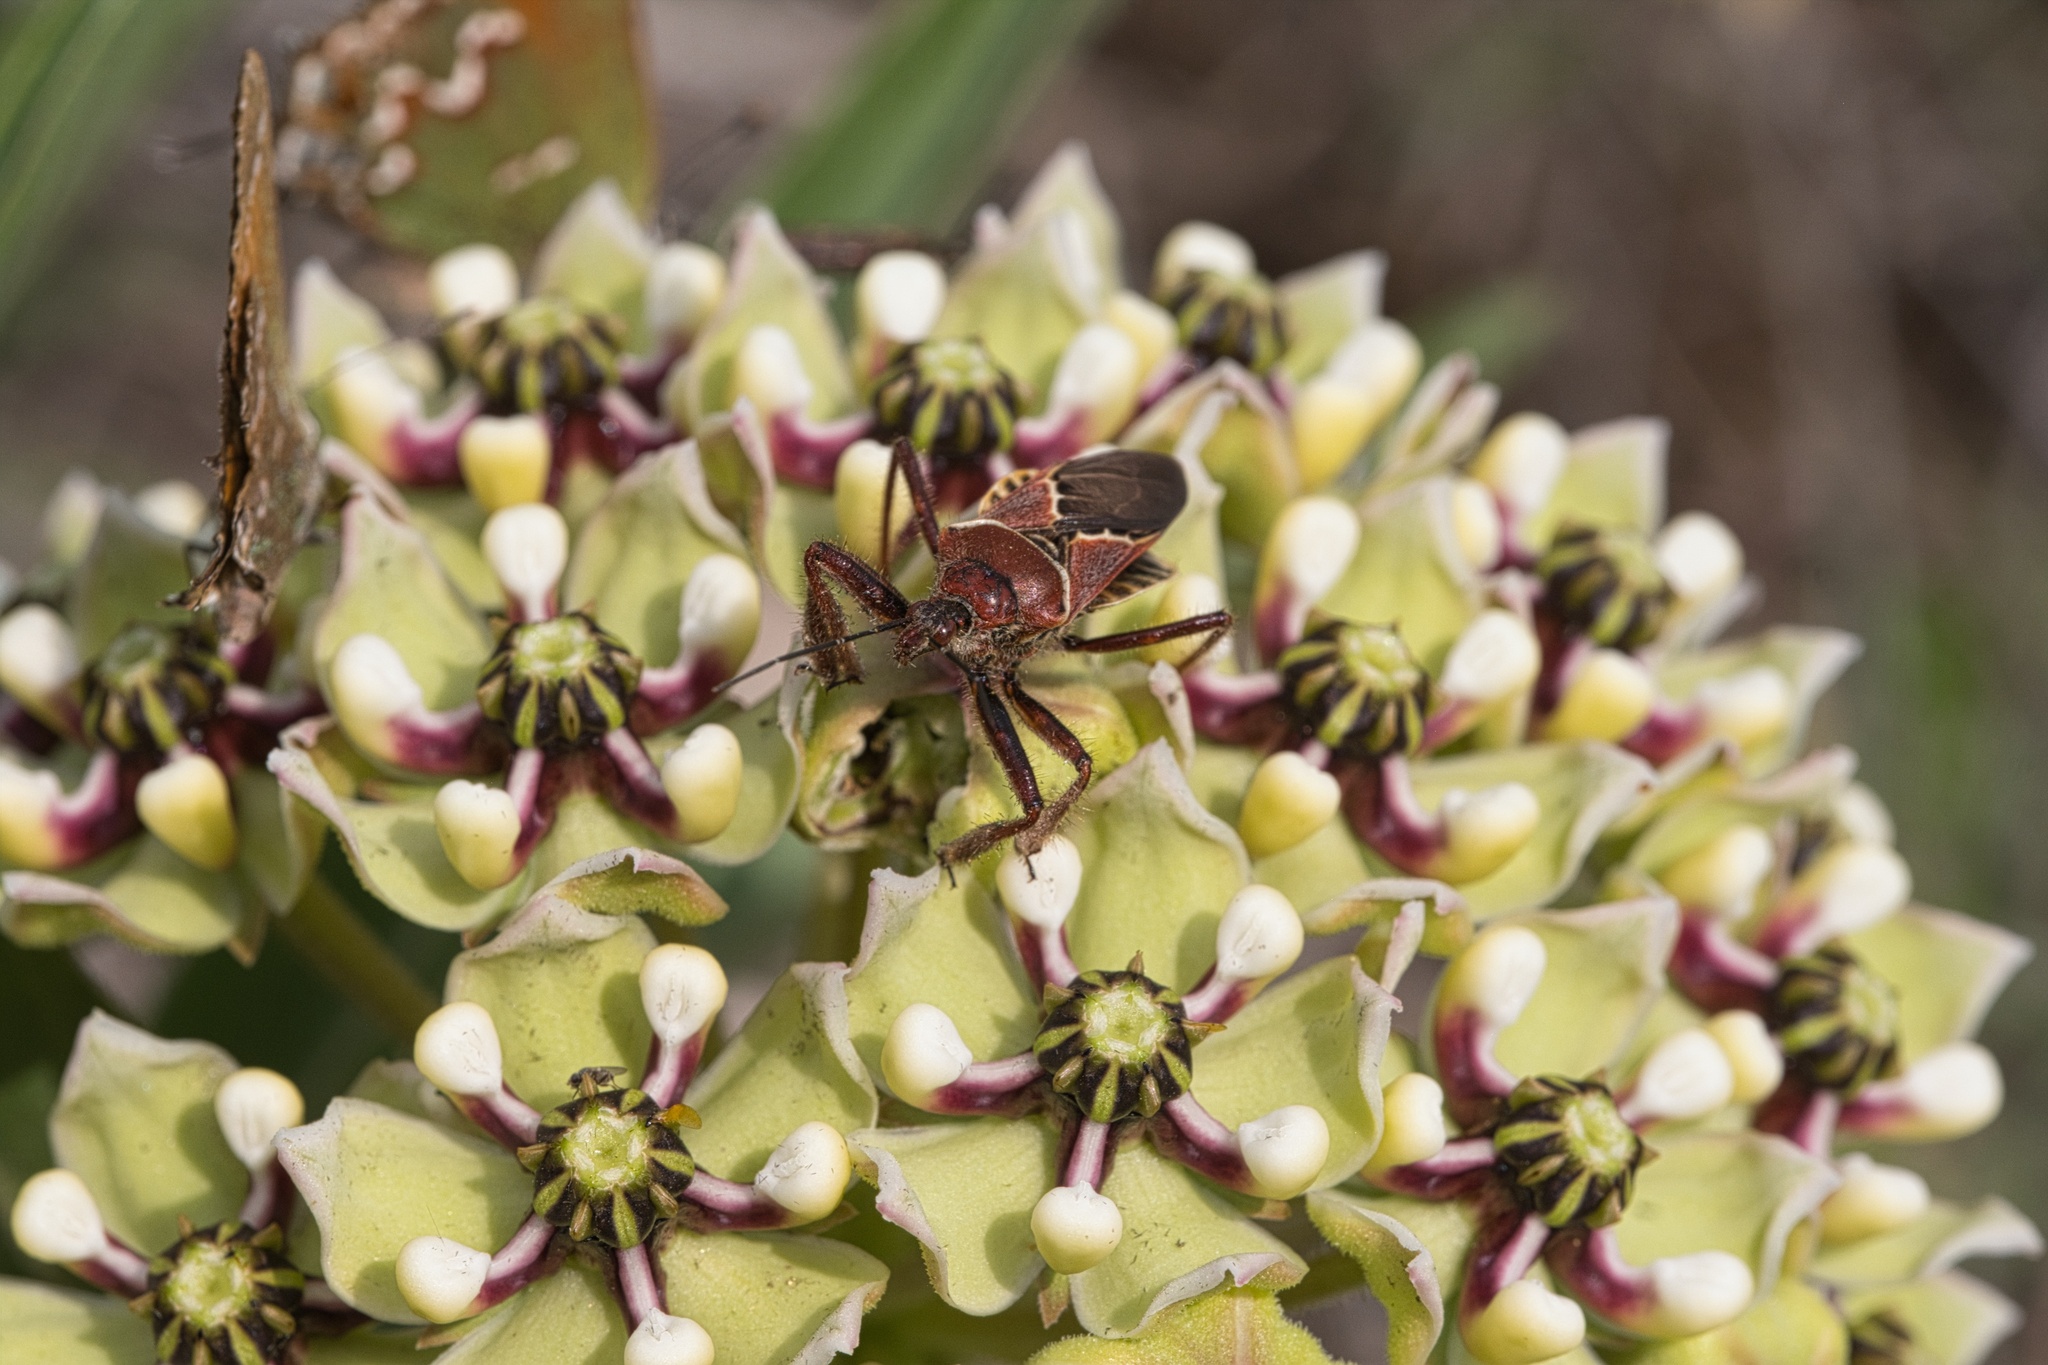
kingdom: Animalia
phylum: Arthropoda
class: Insecta
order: Hemiptera
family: Reduviidae
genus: Apiomerus
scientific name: Apiomerus spissipes
